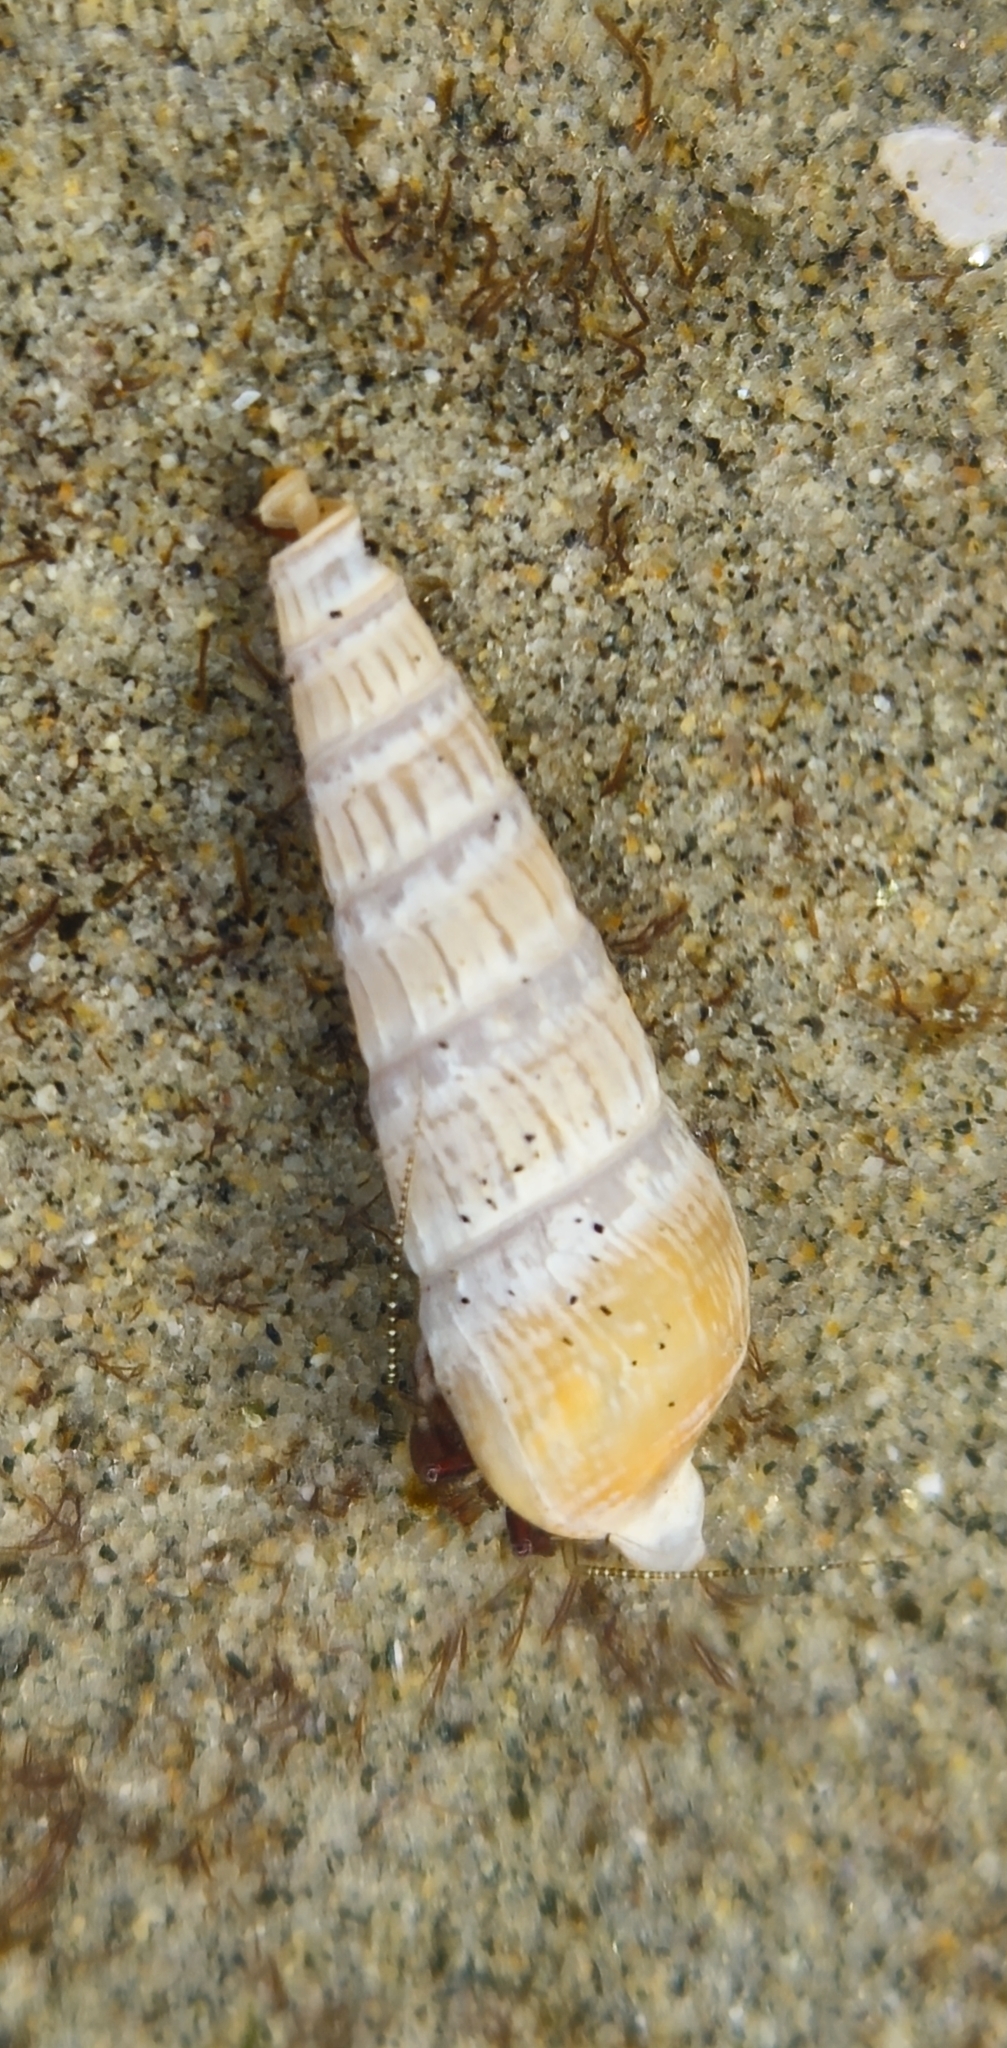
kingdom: Animalia
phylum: Mollusca
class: Gastropoda
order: Neogastropoda
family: Terebridae
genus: Neoterebra
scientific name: Neoterebra pedroana
